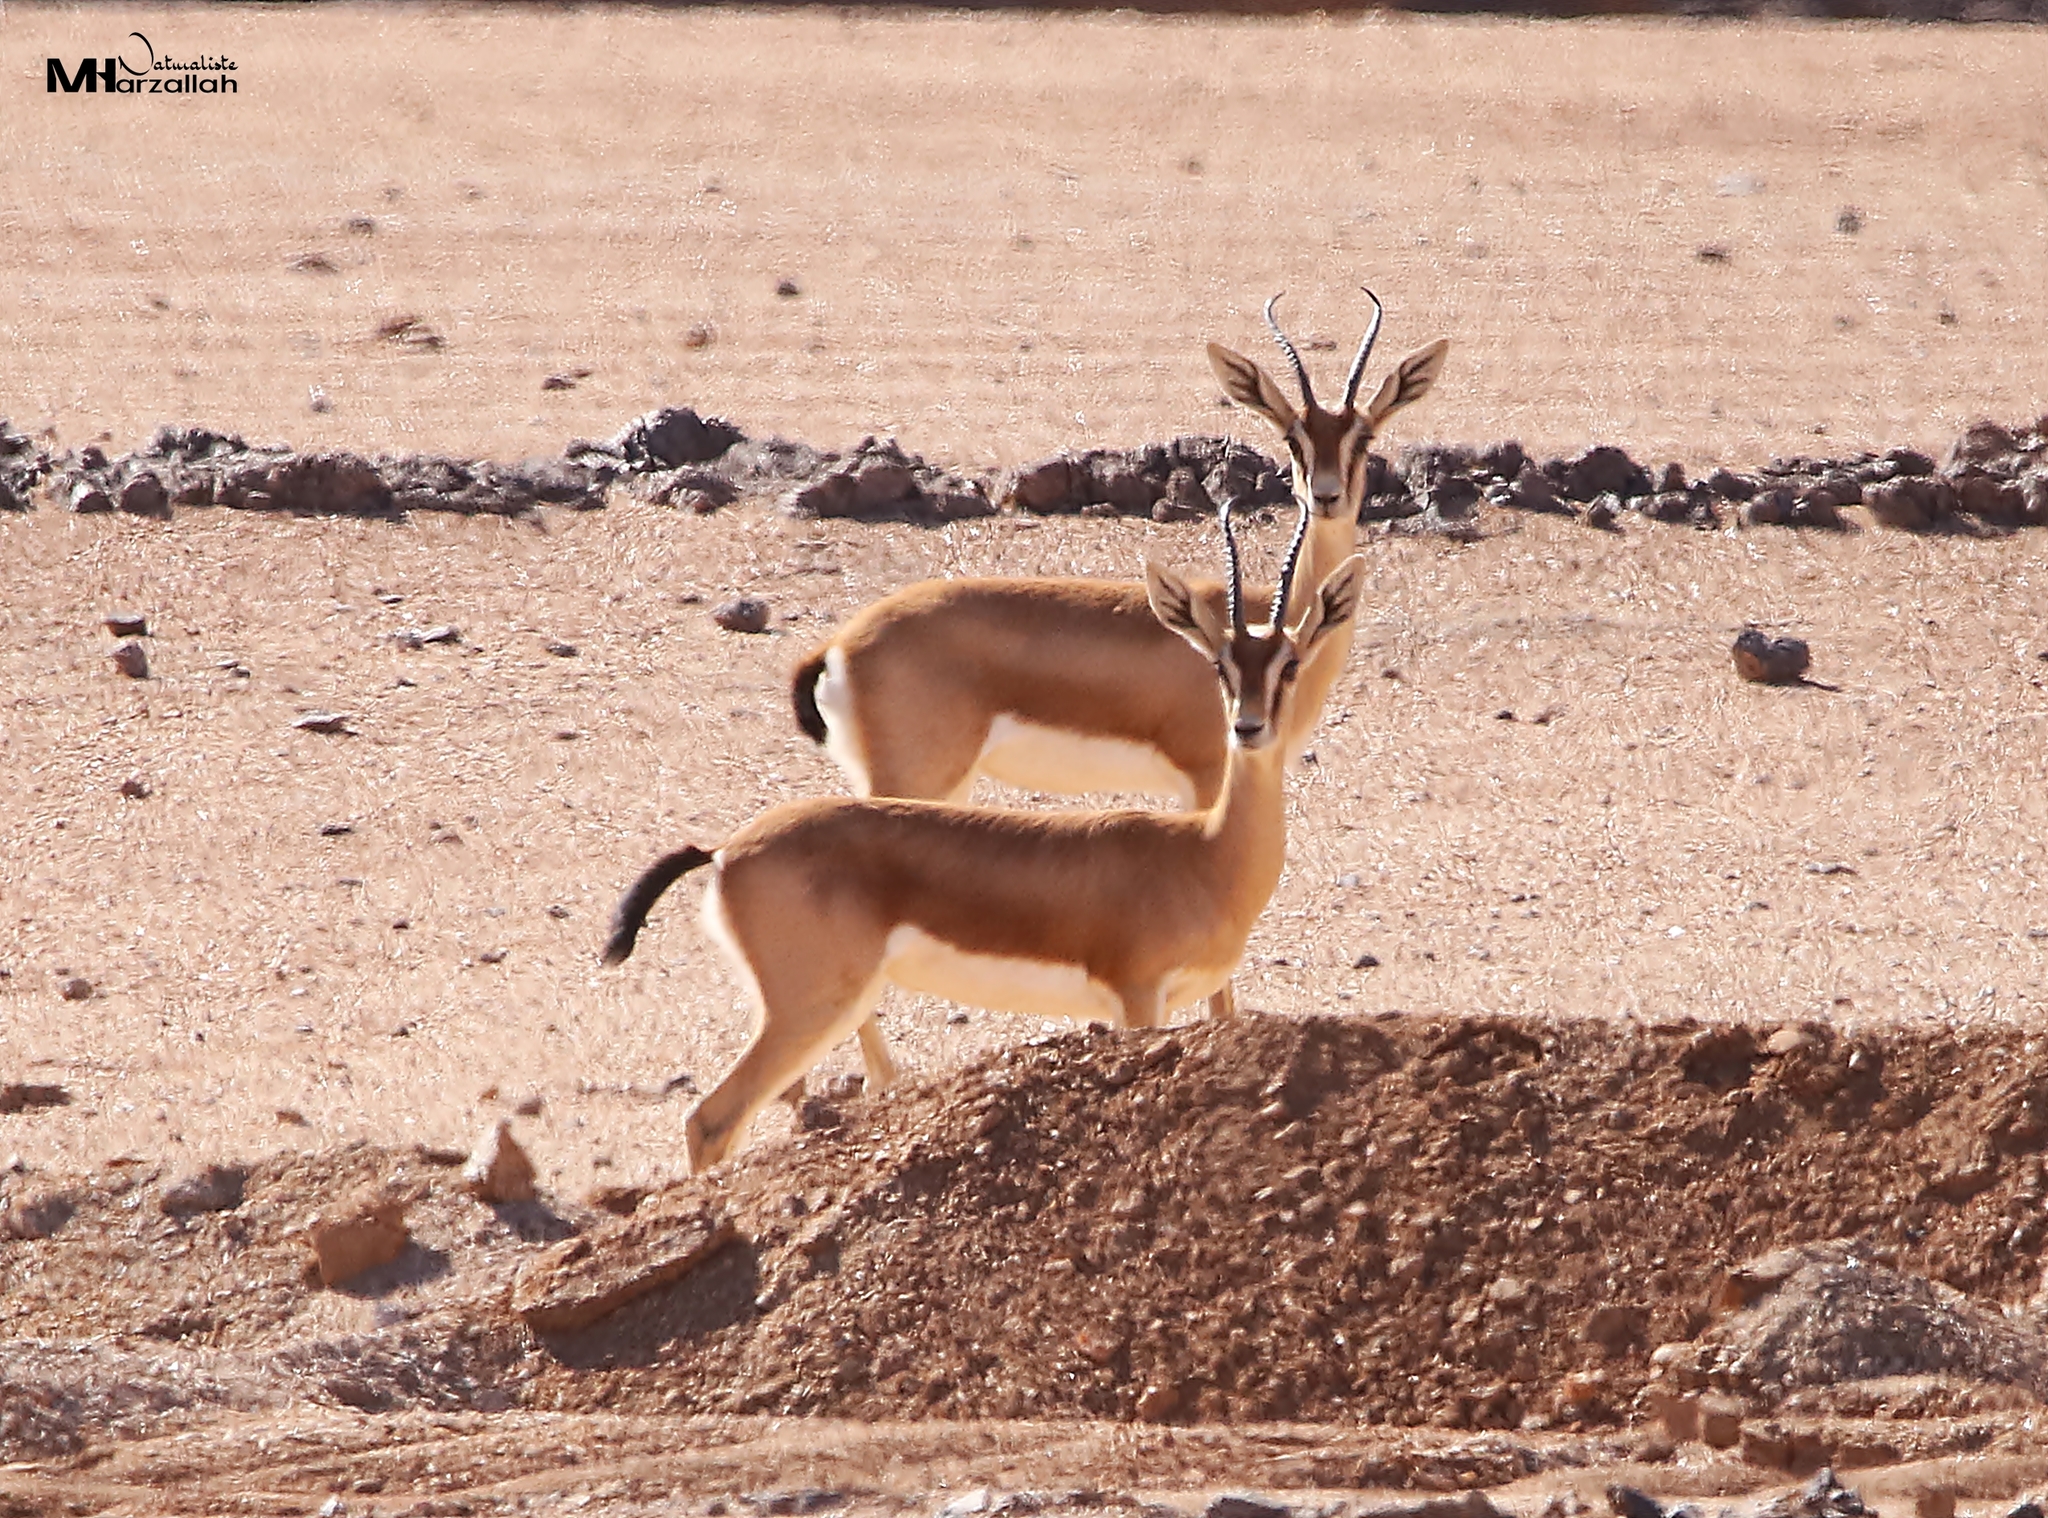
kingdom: Animalia
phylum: Chordata
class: Mammalia
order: Artiodactyla
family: Bovidae
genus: Gazella
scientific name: Gazella dorcas
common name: Dorcas gazelle
